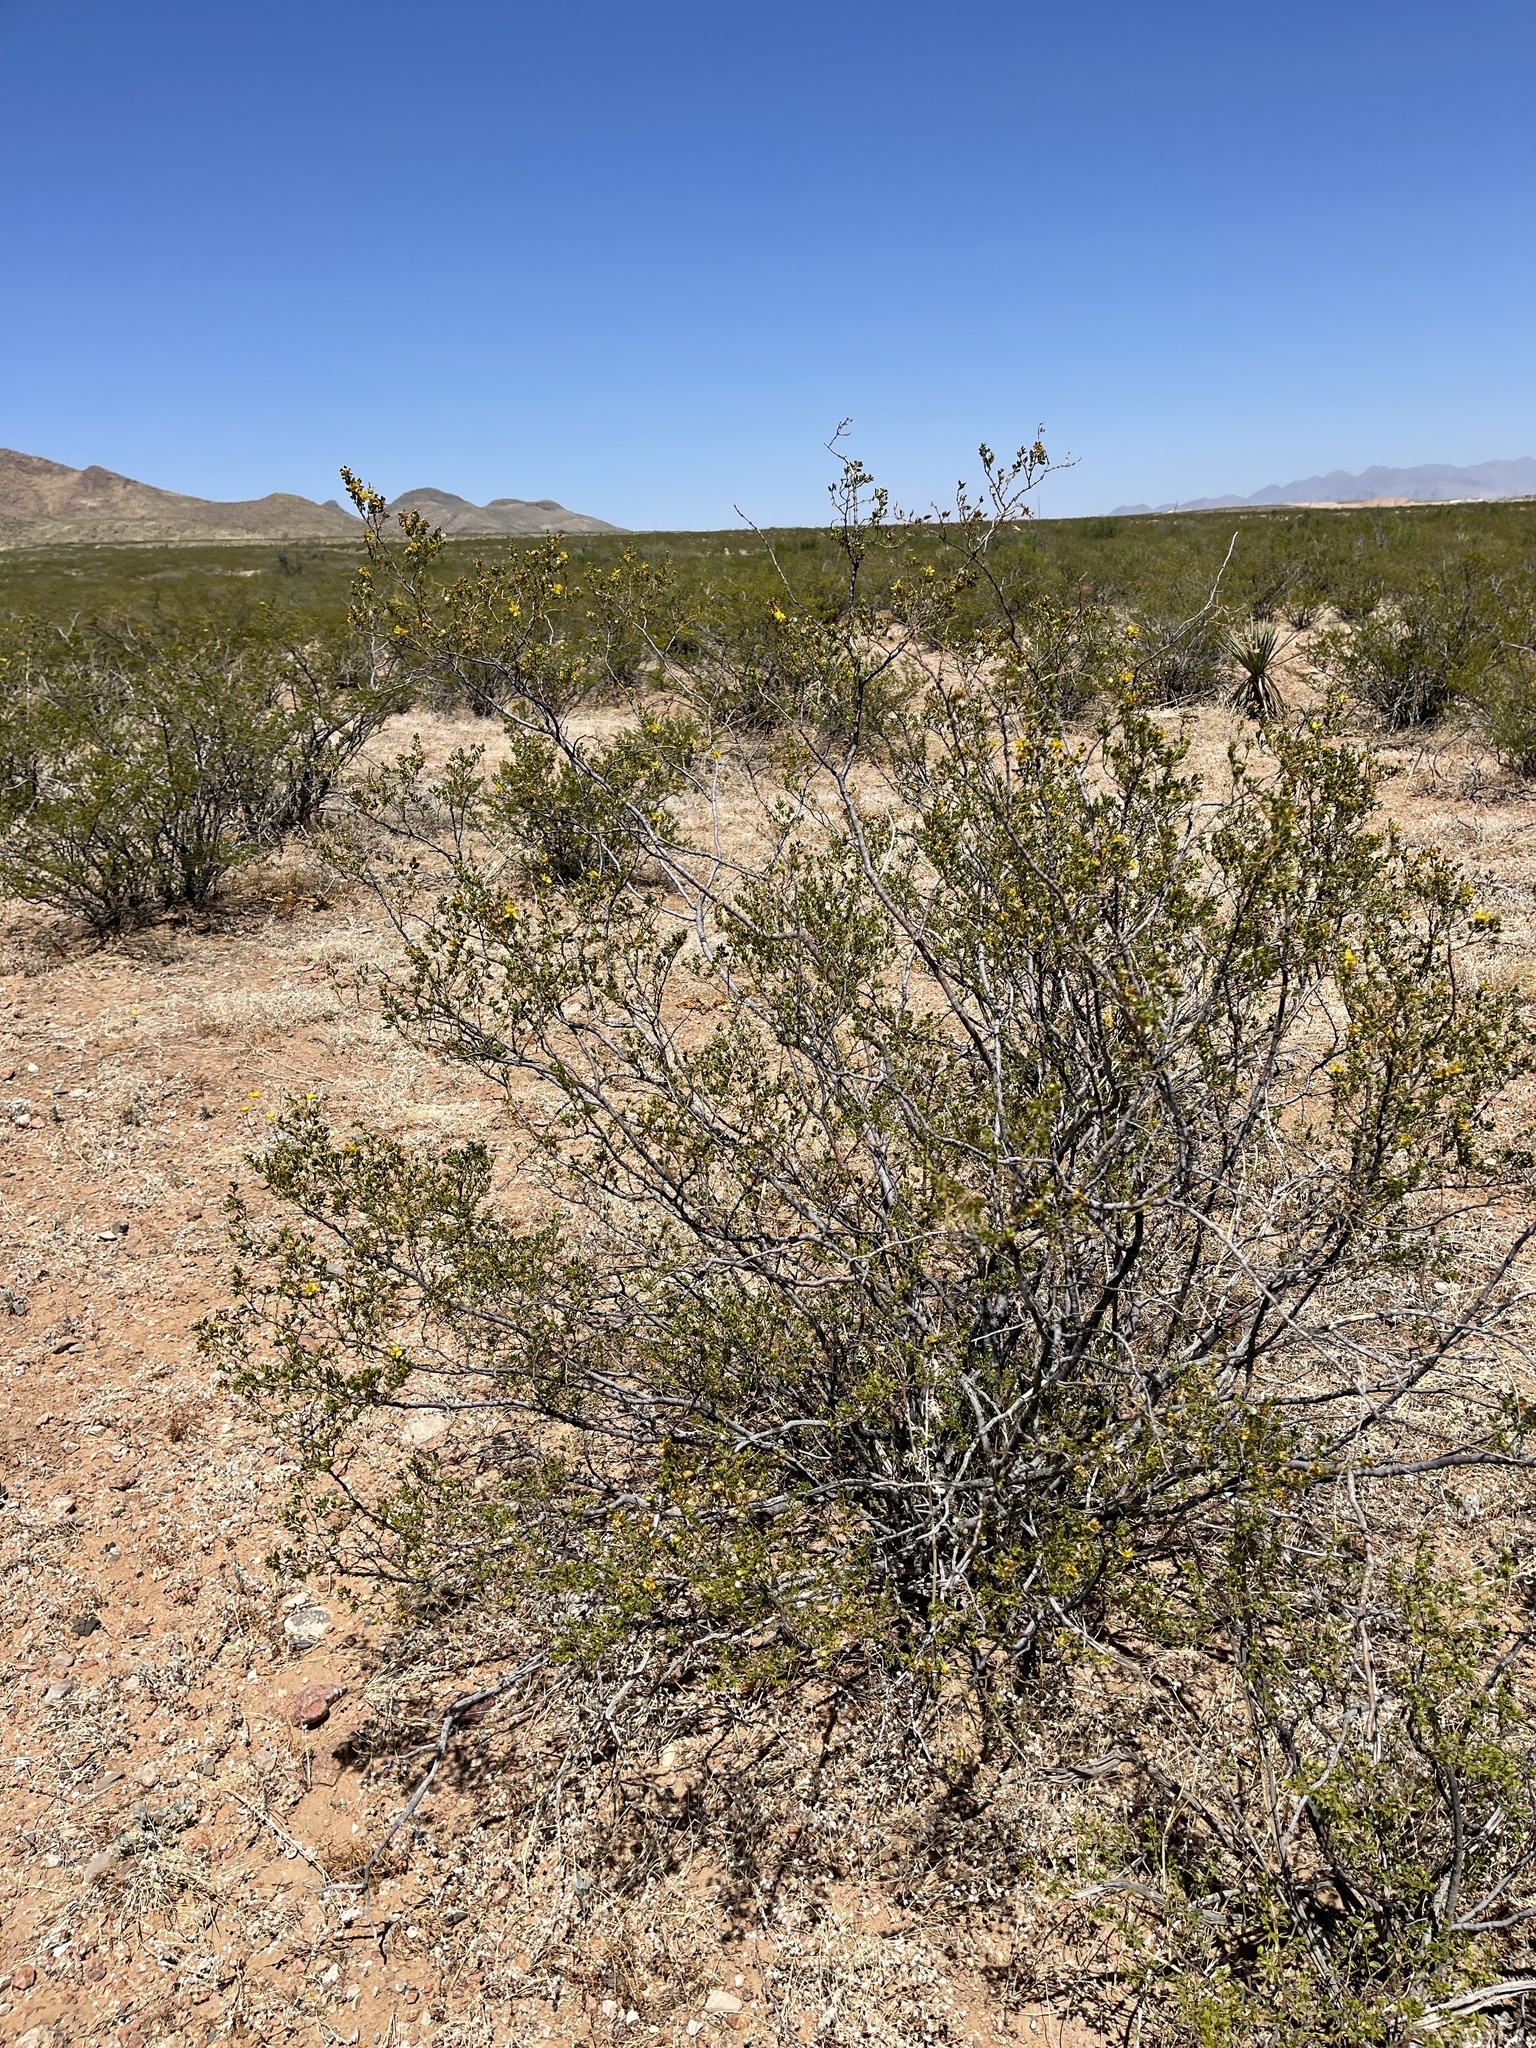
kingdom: Plantae
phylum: Tracheophyta
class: Magnoliopsida
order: Zygophyllales
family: Zygophyllaceae
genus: Larrea
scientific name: Larrea tridentata
